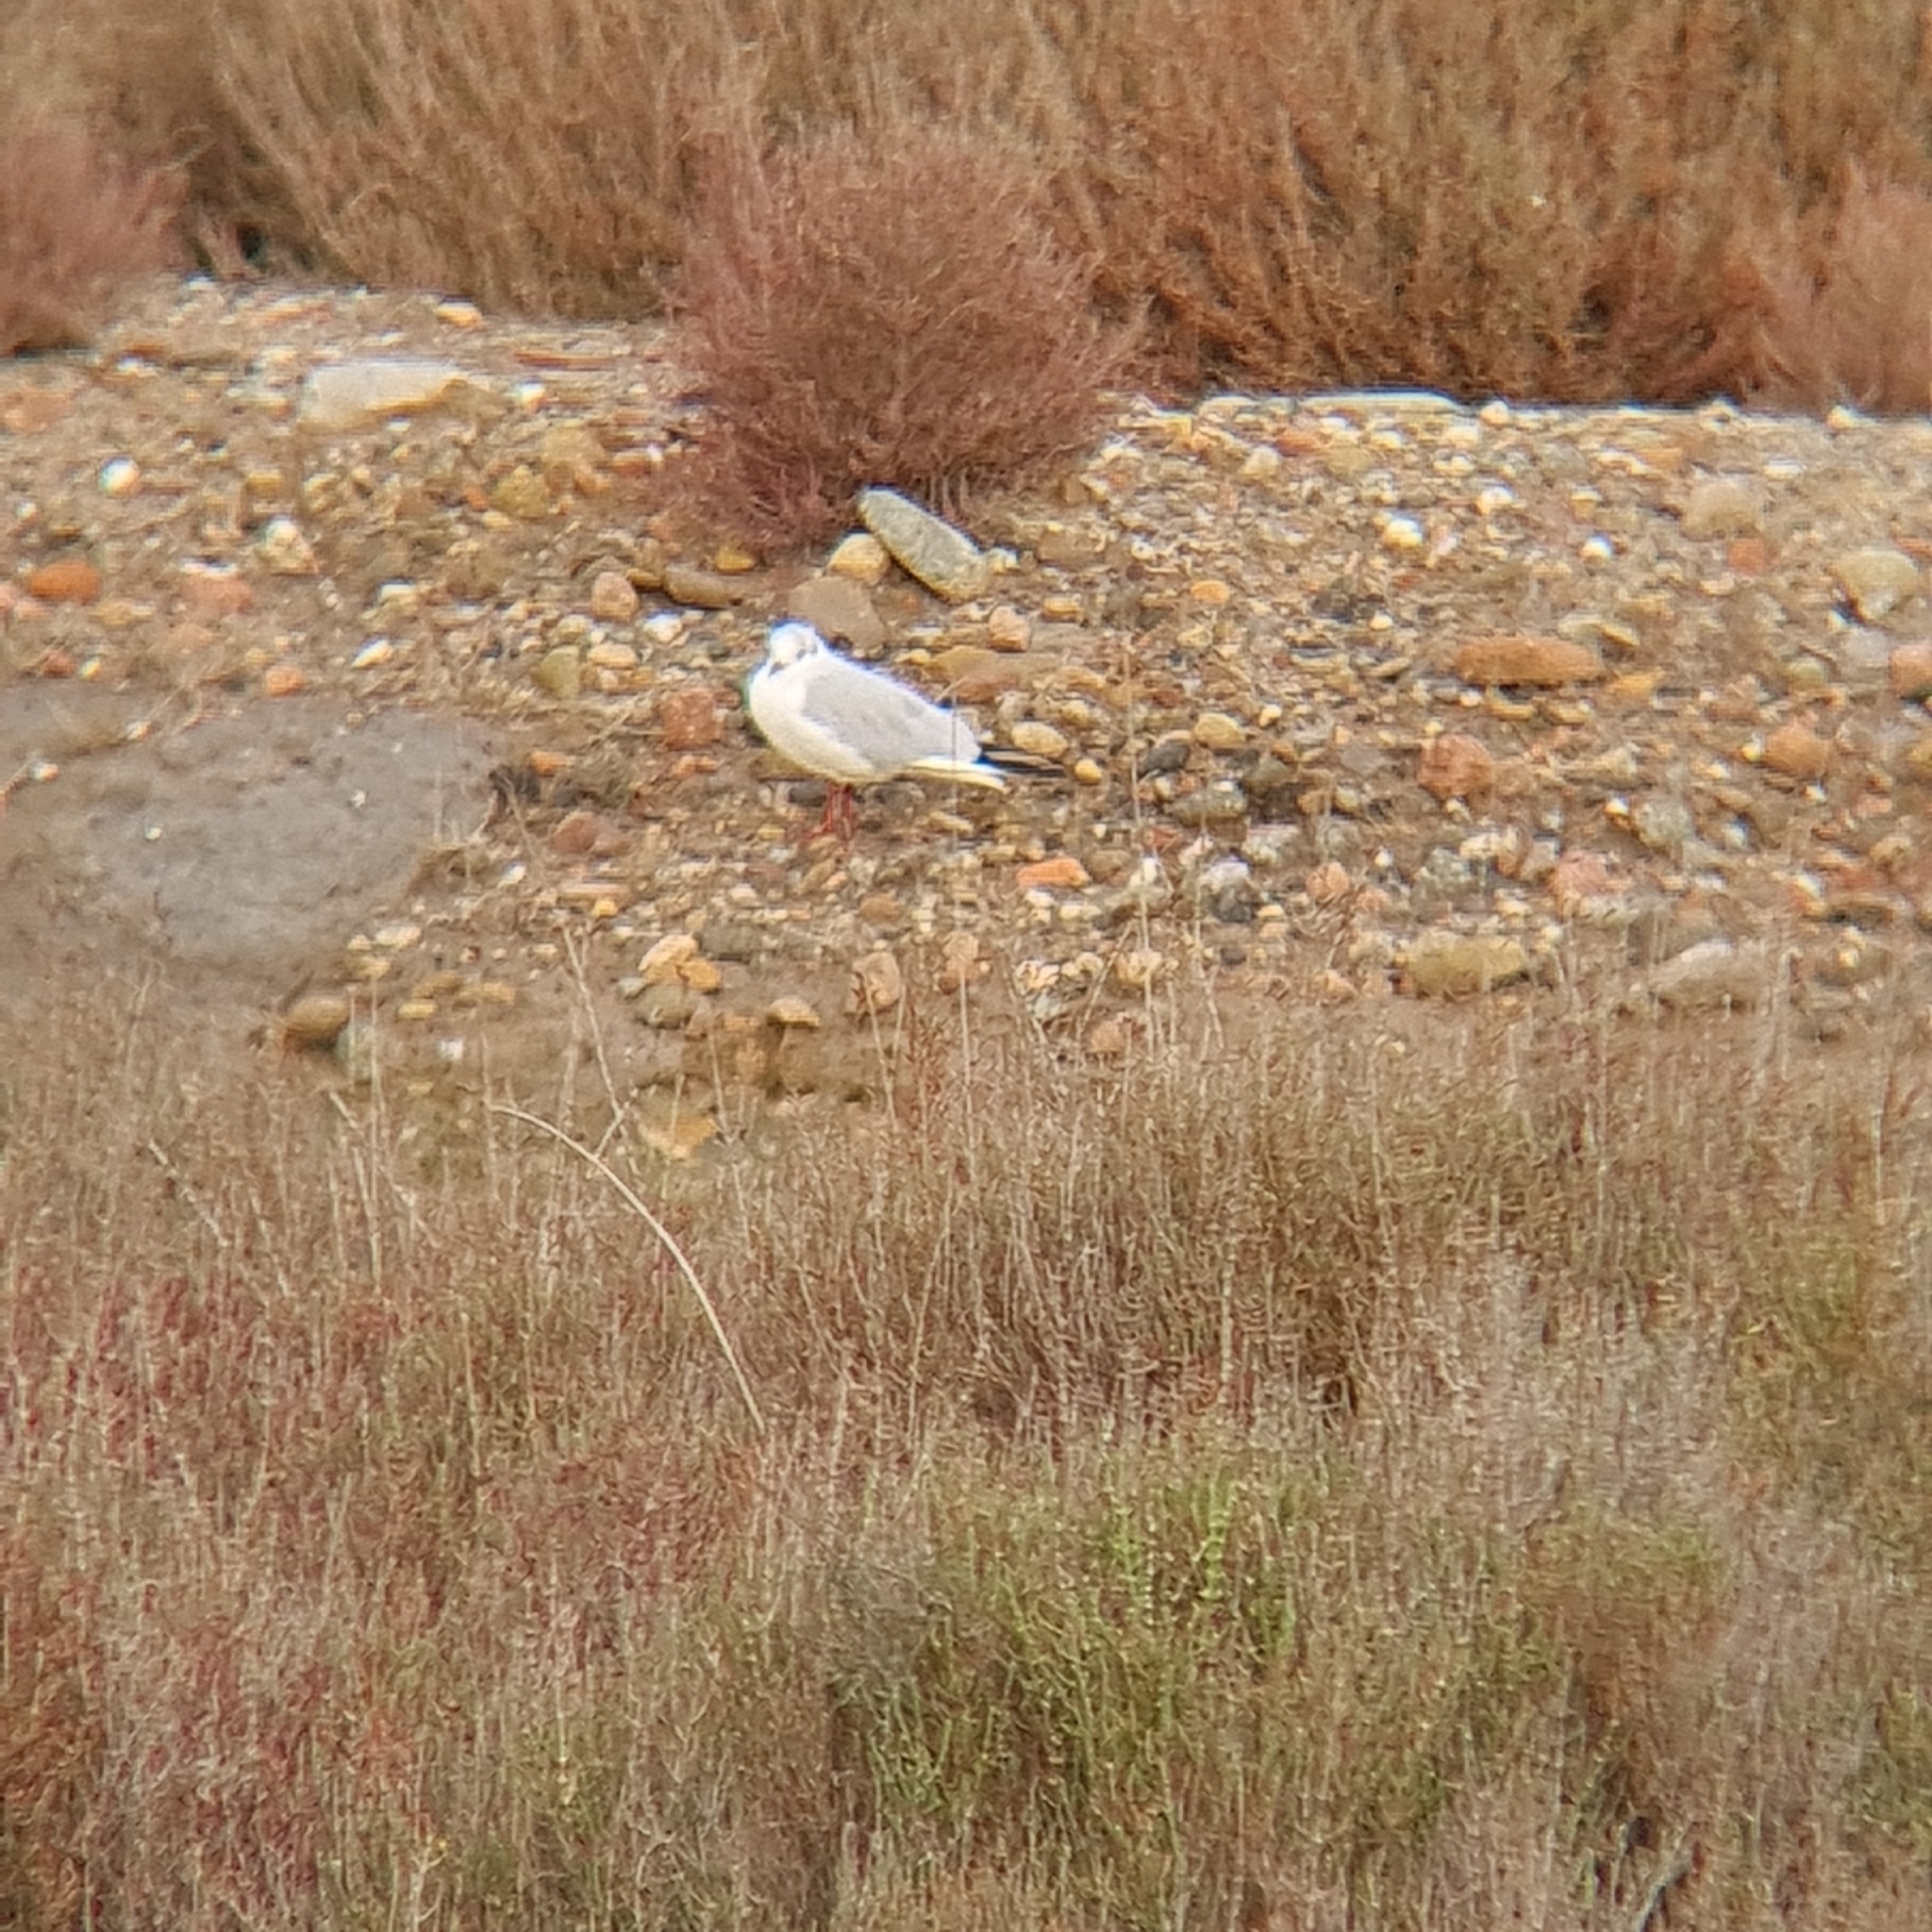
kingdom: Animalia
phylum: Chordata
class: Aves
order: Charadriiformes
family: Laridae
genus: Chroicocephalus
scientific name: Chroicocephalus ridibundus
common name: Black-headed gull
